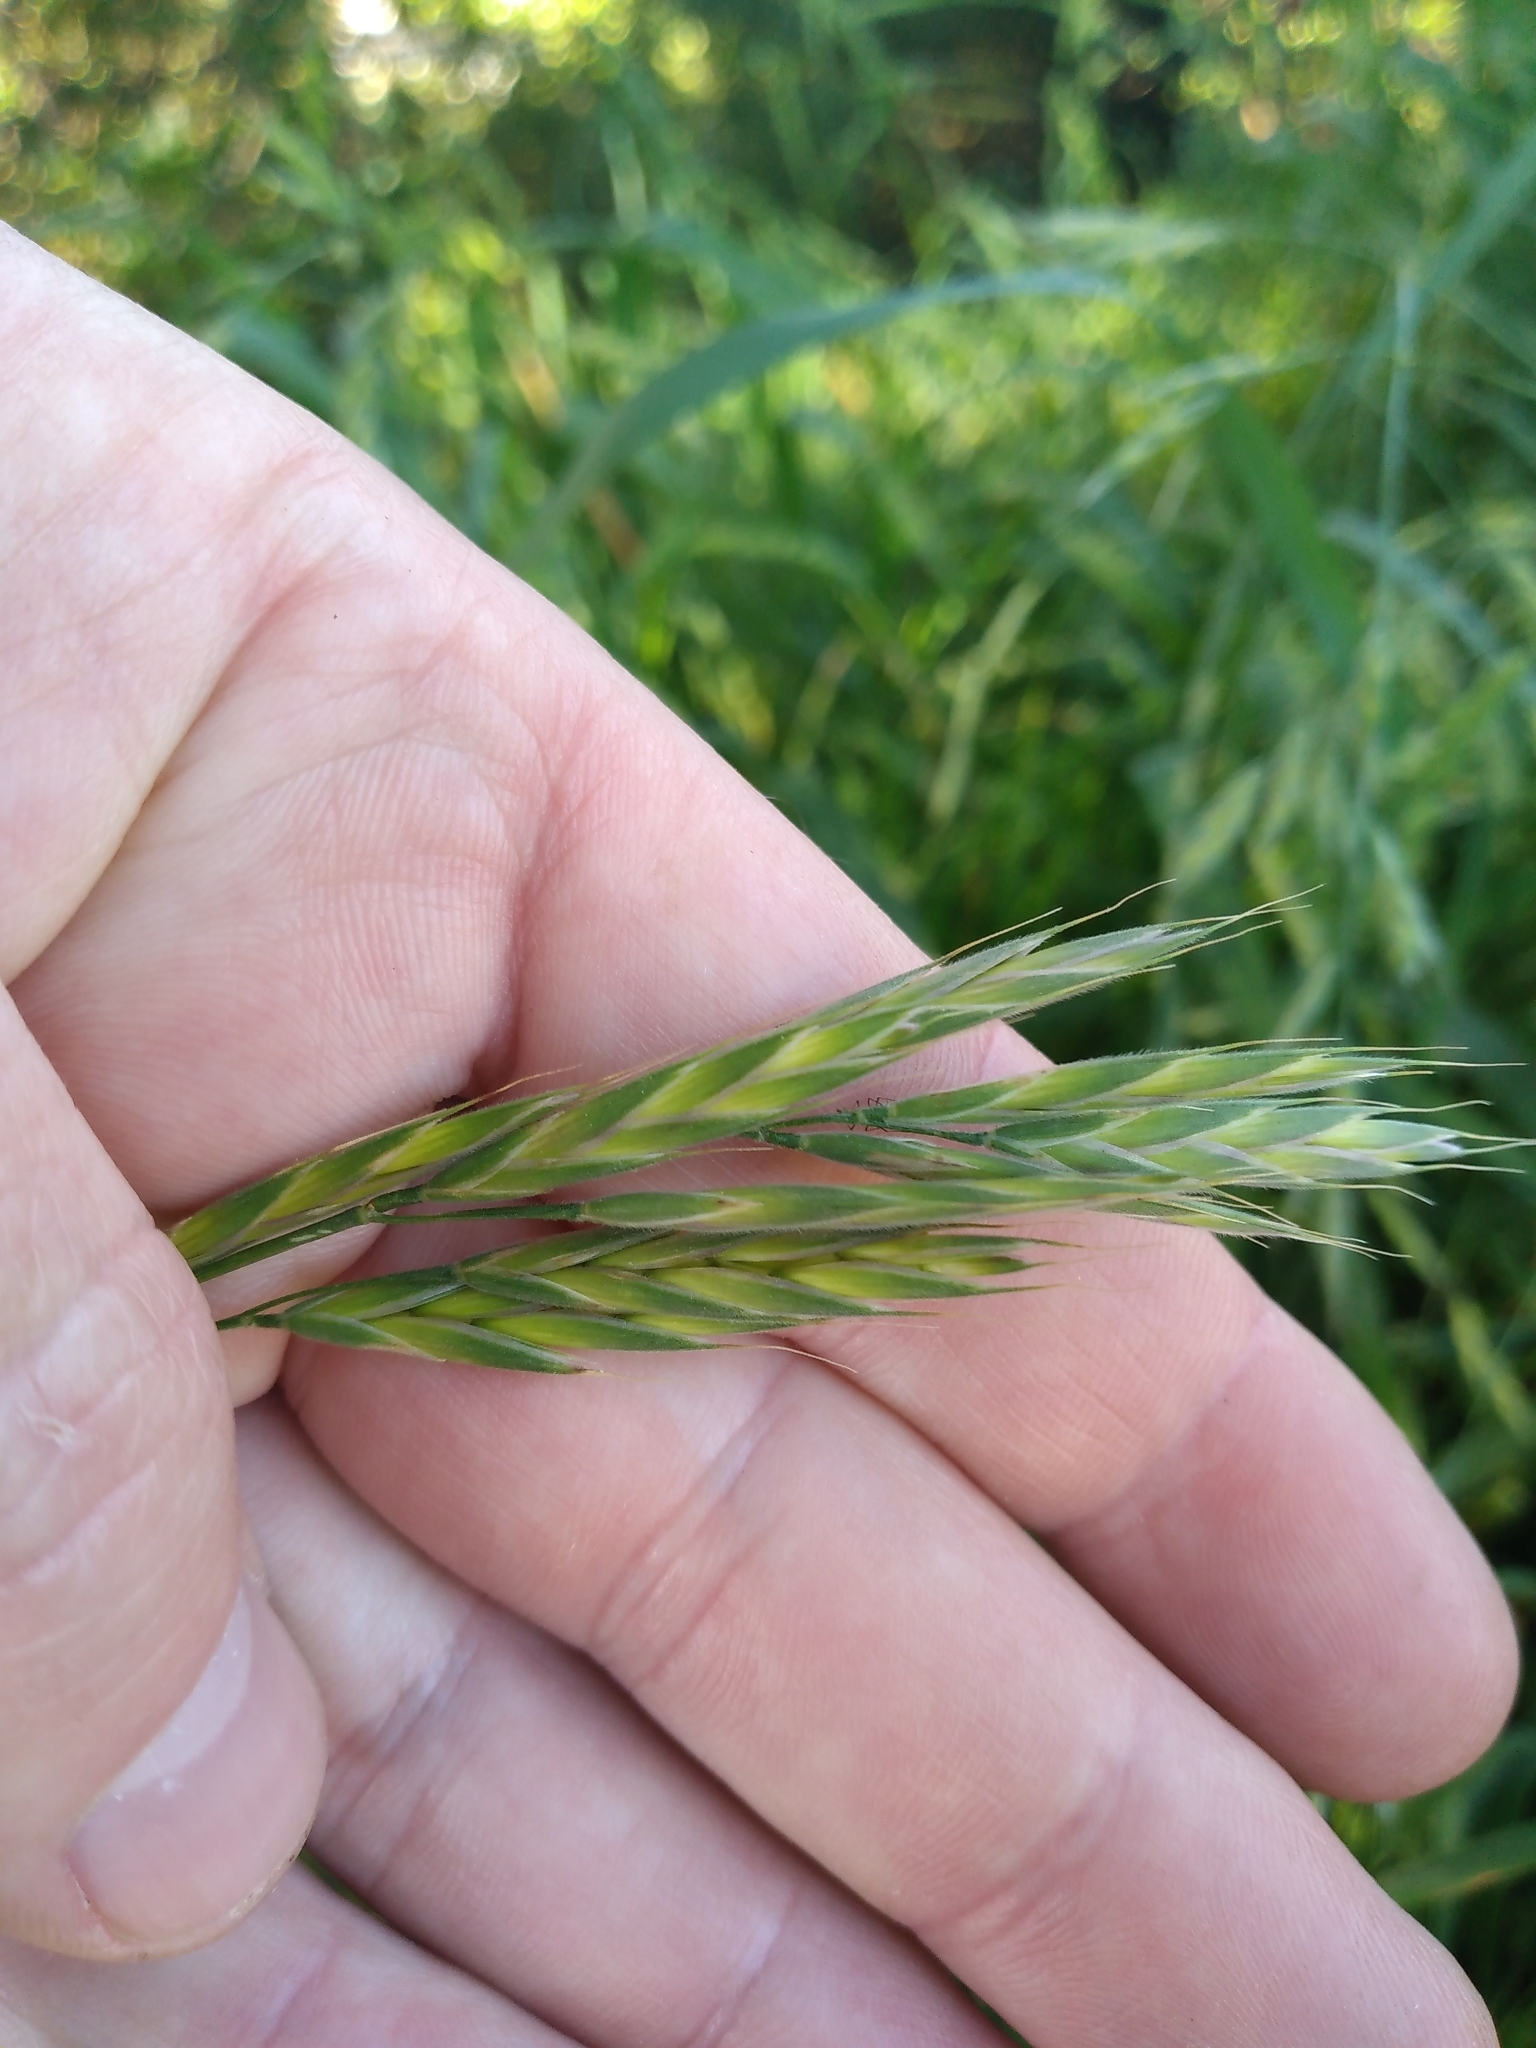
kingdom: Plantae
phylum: Tracheophyta
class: Liliopsida
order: Poales
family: Poaceae
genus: Bromus
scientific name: Bromus hordeaceus
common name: Soft brome
